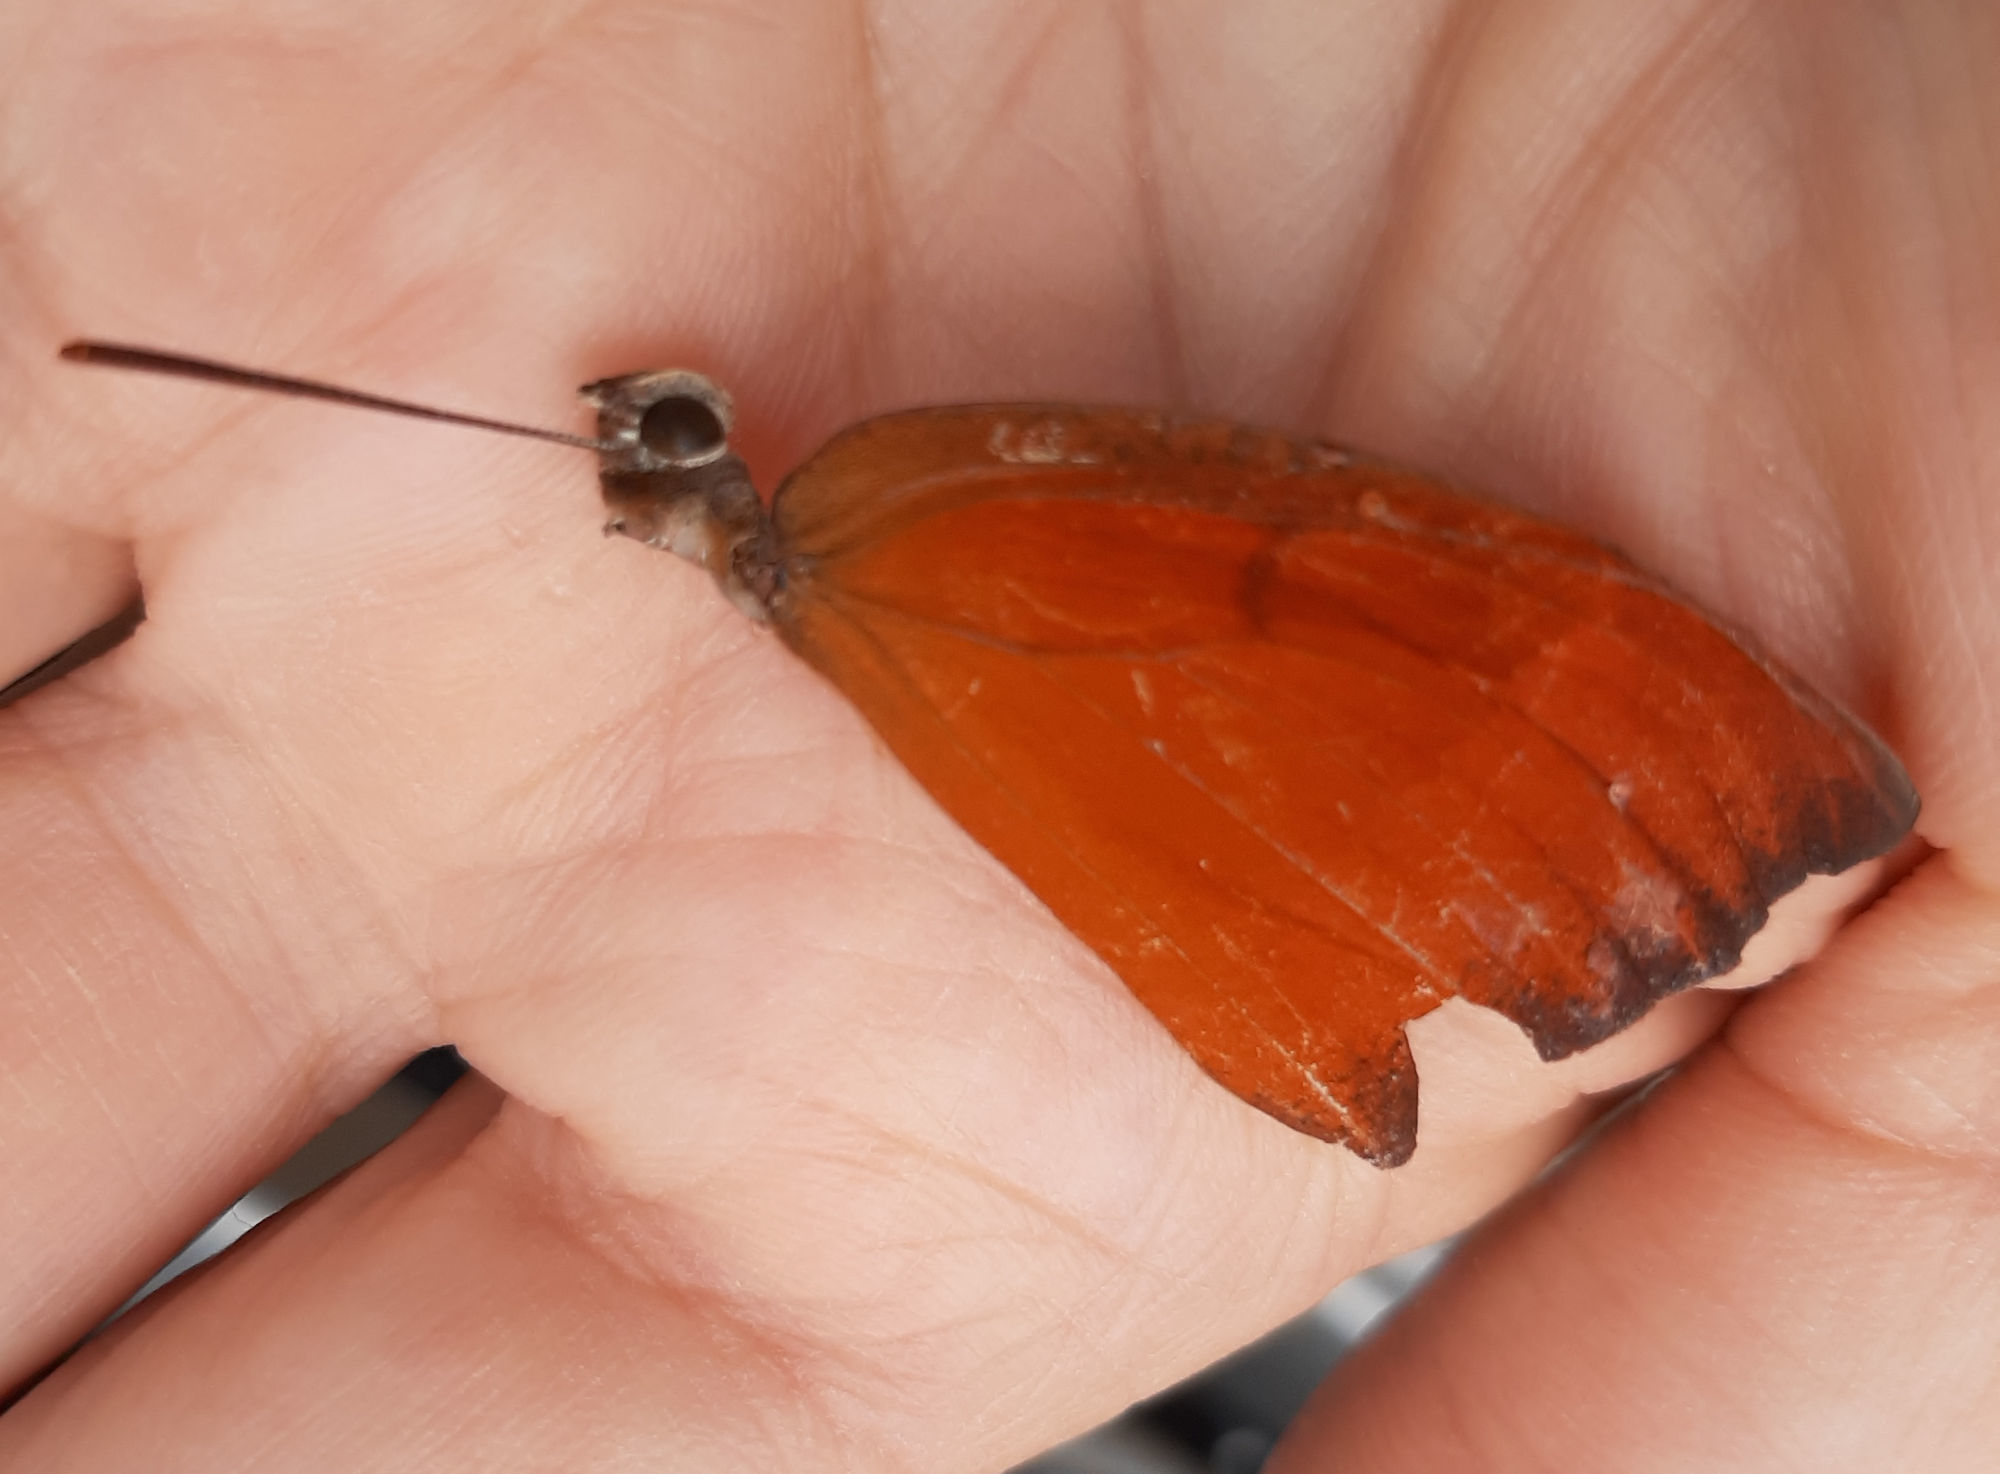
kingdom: Animalia
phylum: Arthropoda
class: Insecta
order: Lepidoptera
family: Nymphalidae
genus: Anaea
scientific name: Anaea andria
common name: Goatweed leafwing
